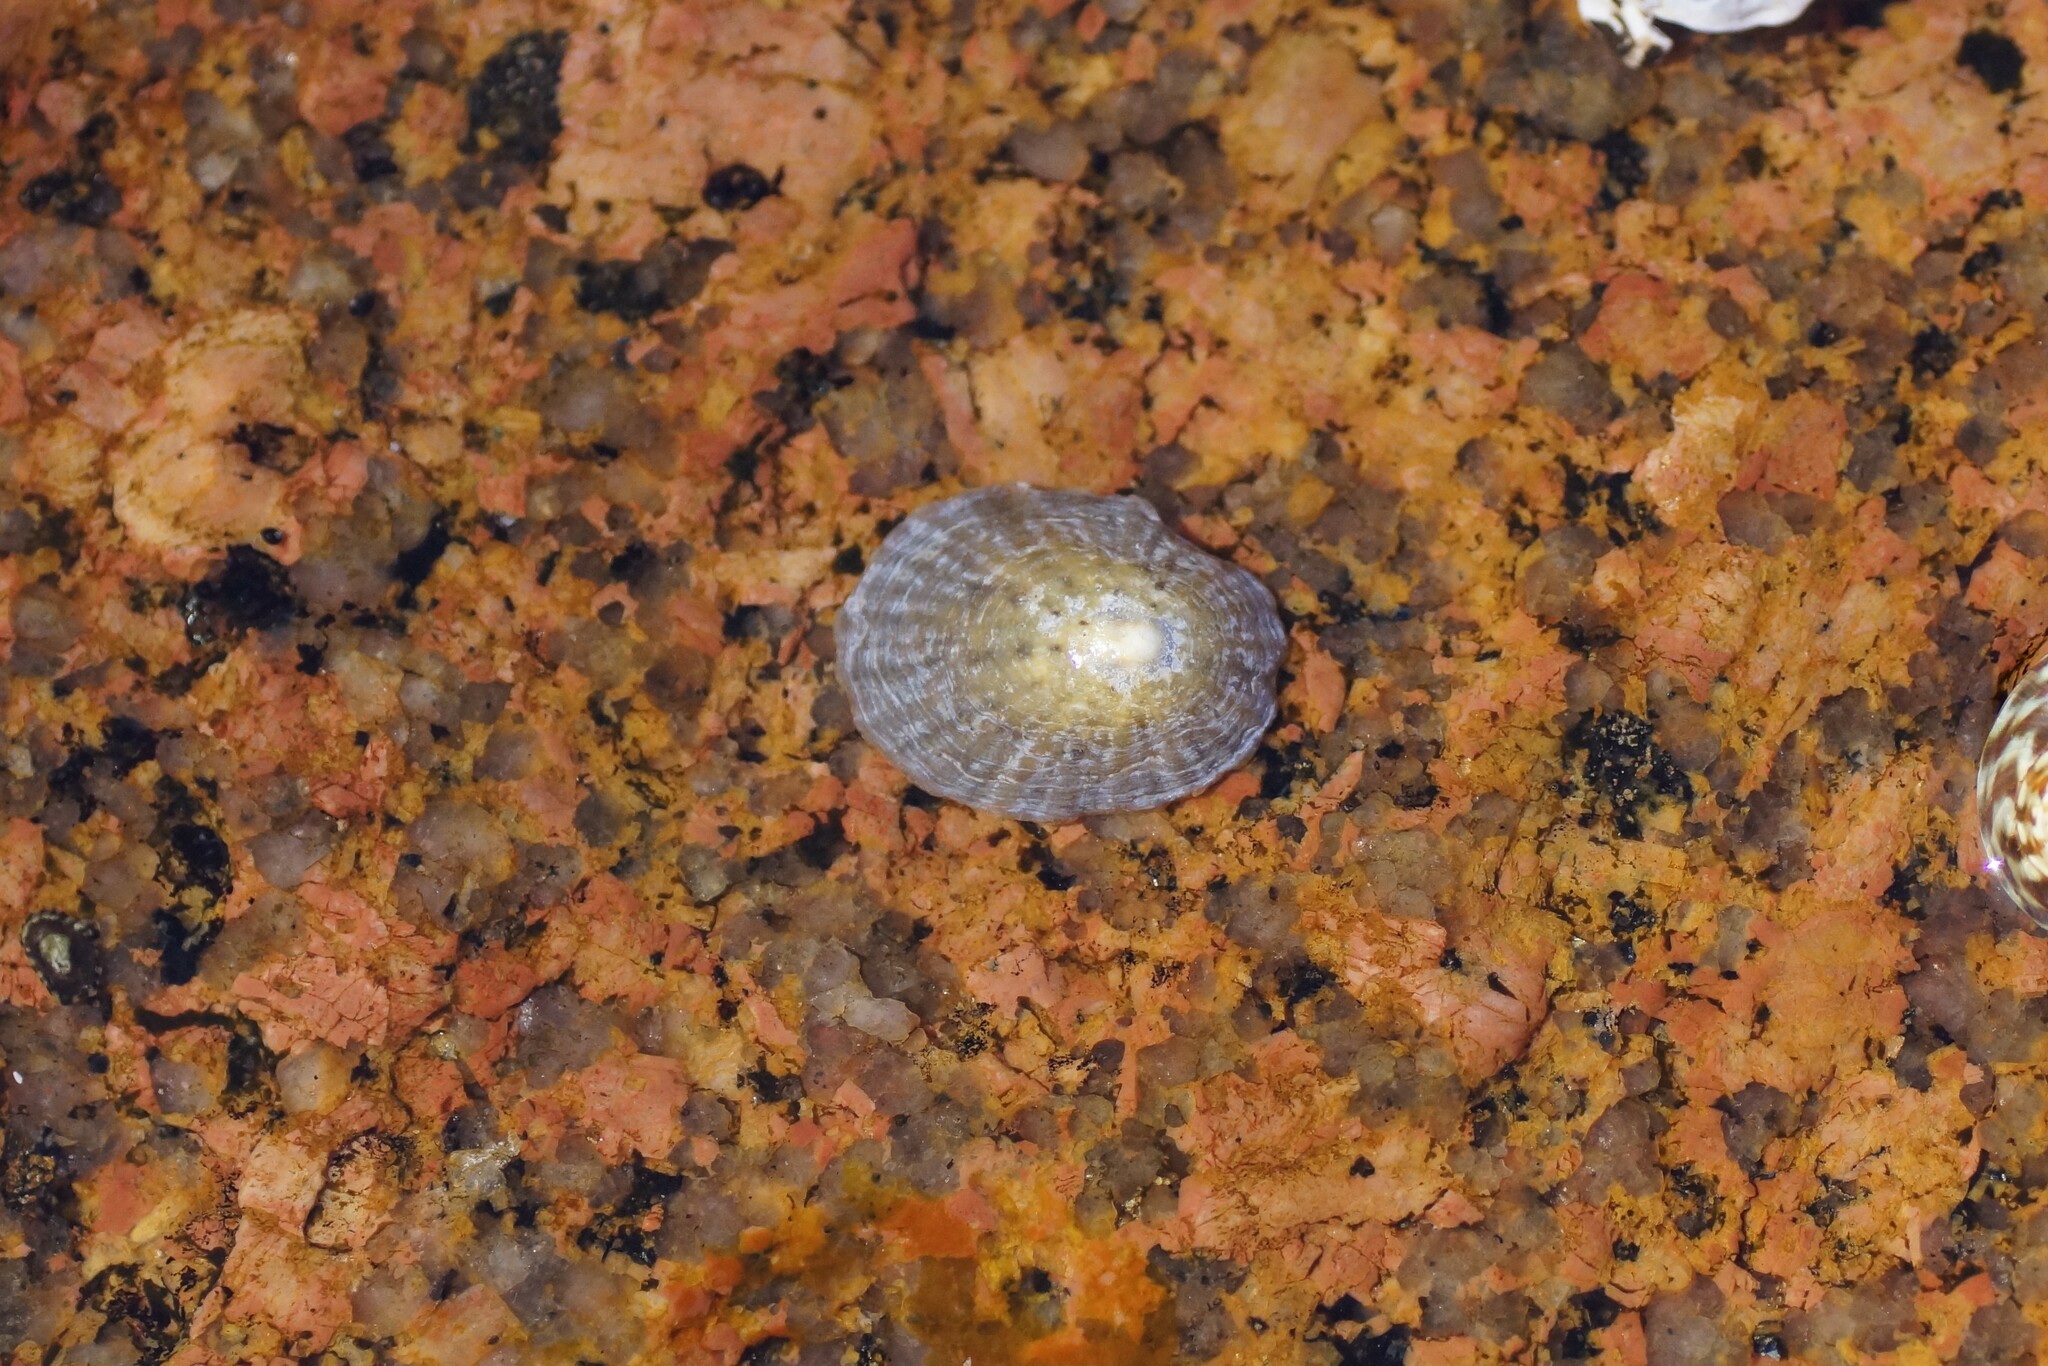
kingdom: Animalia
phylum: Mollusca
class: Gastropoda
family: Nacellidae
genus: Cellana
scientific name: Cellana solida
